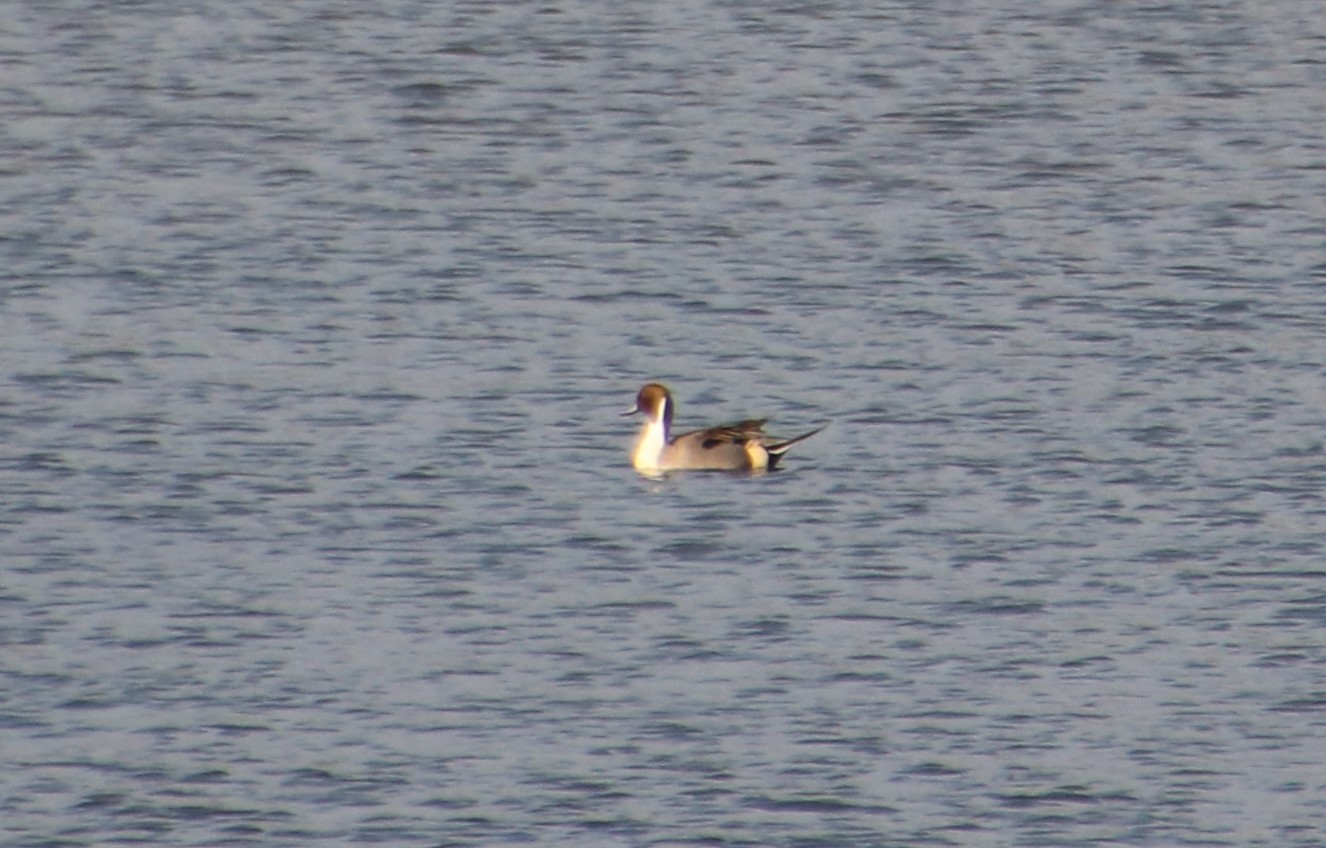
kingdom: Animalia
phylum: Chordata
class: Aves
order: Anseriformes
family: Anatidae
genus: Anas
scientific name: Anas acuta
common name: Northern pintail
